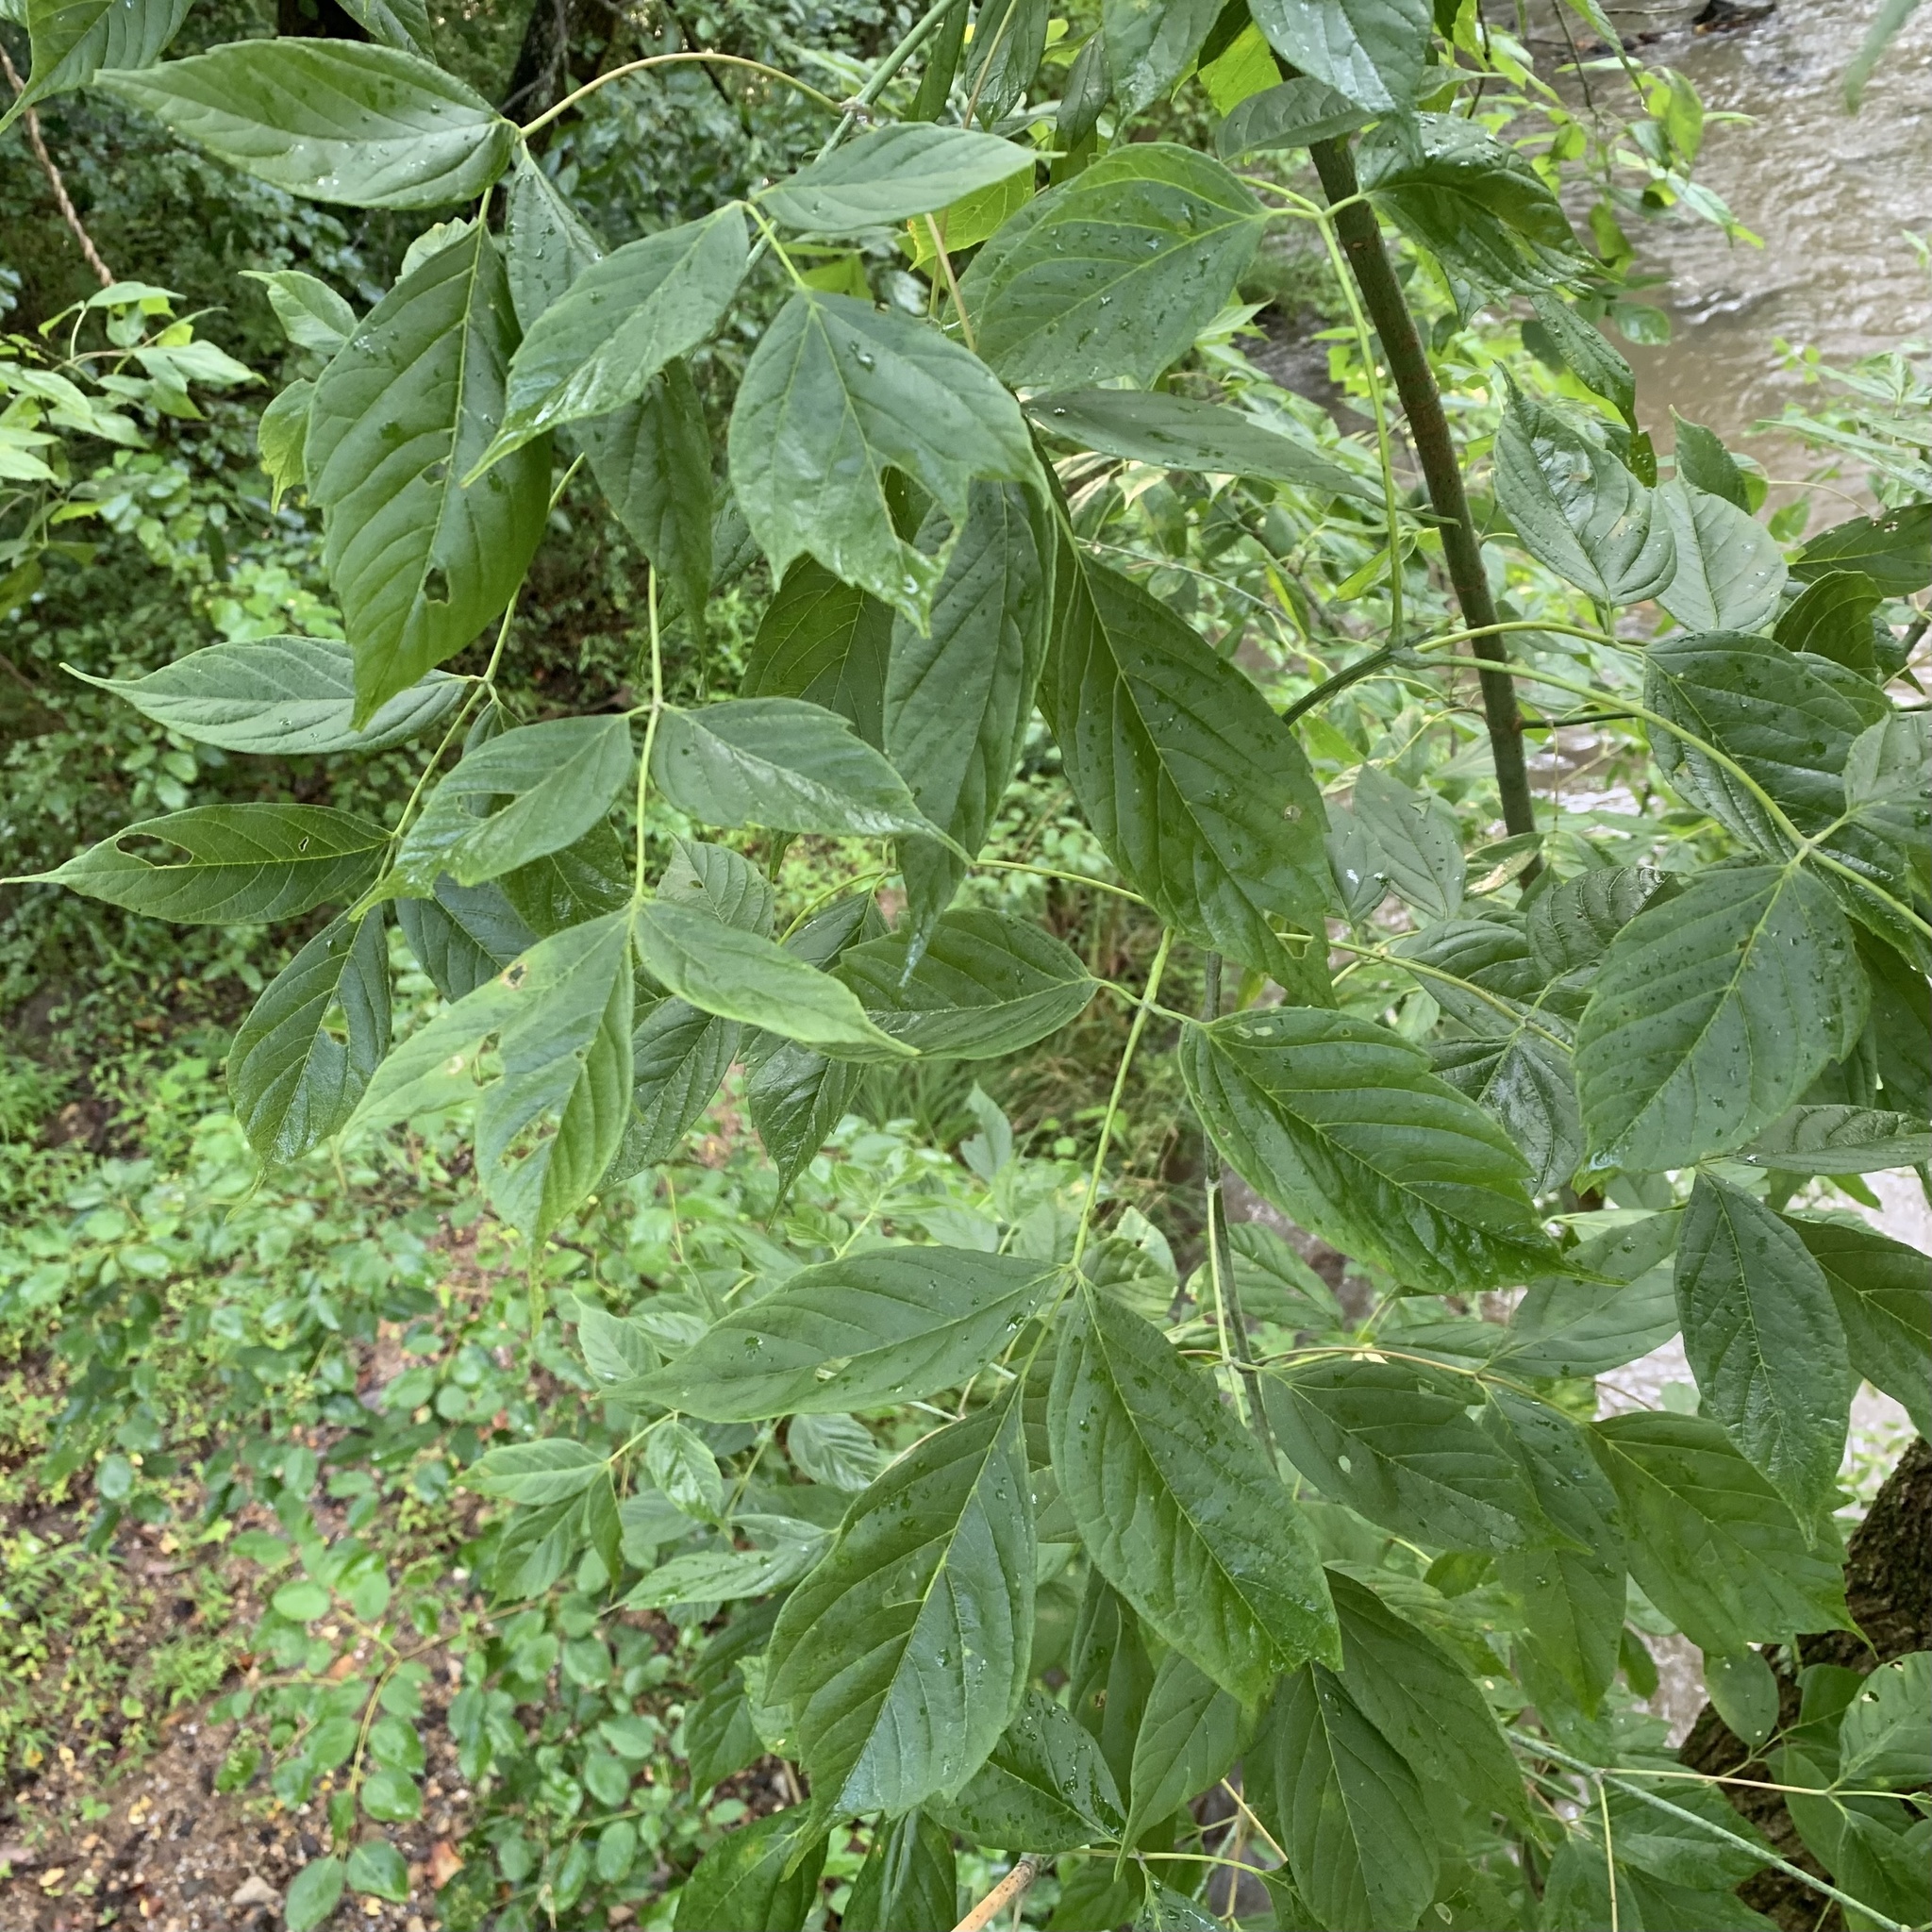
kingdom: Plantae
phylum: Tracheophyta
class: Magnoliopsida
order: Sapindales
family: Sapindaceae
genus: Acer
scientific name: Acer negundo
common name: Ashleaf maple
